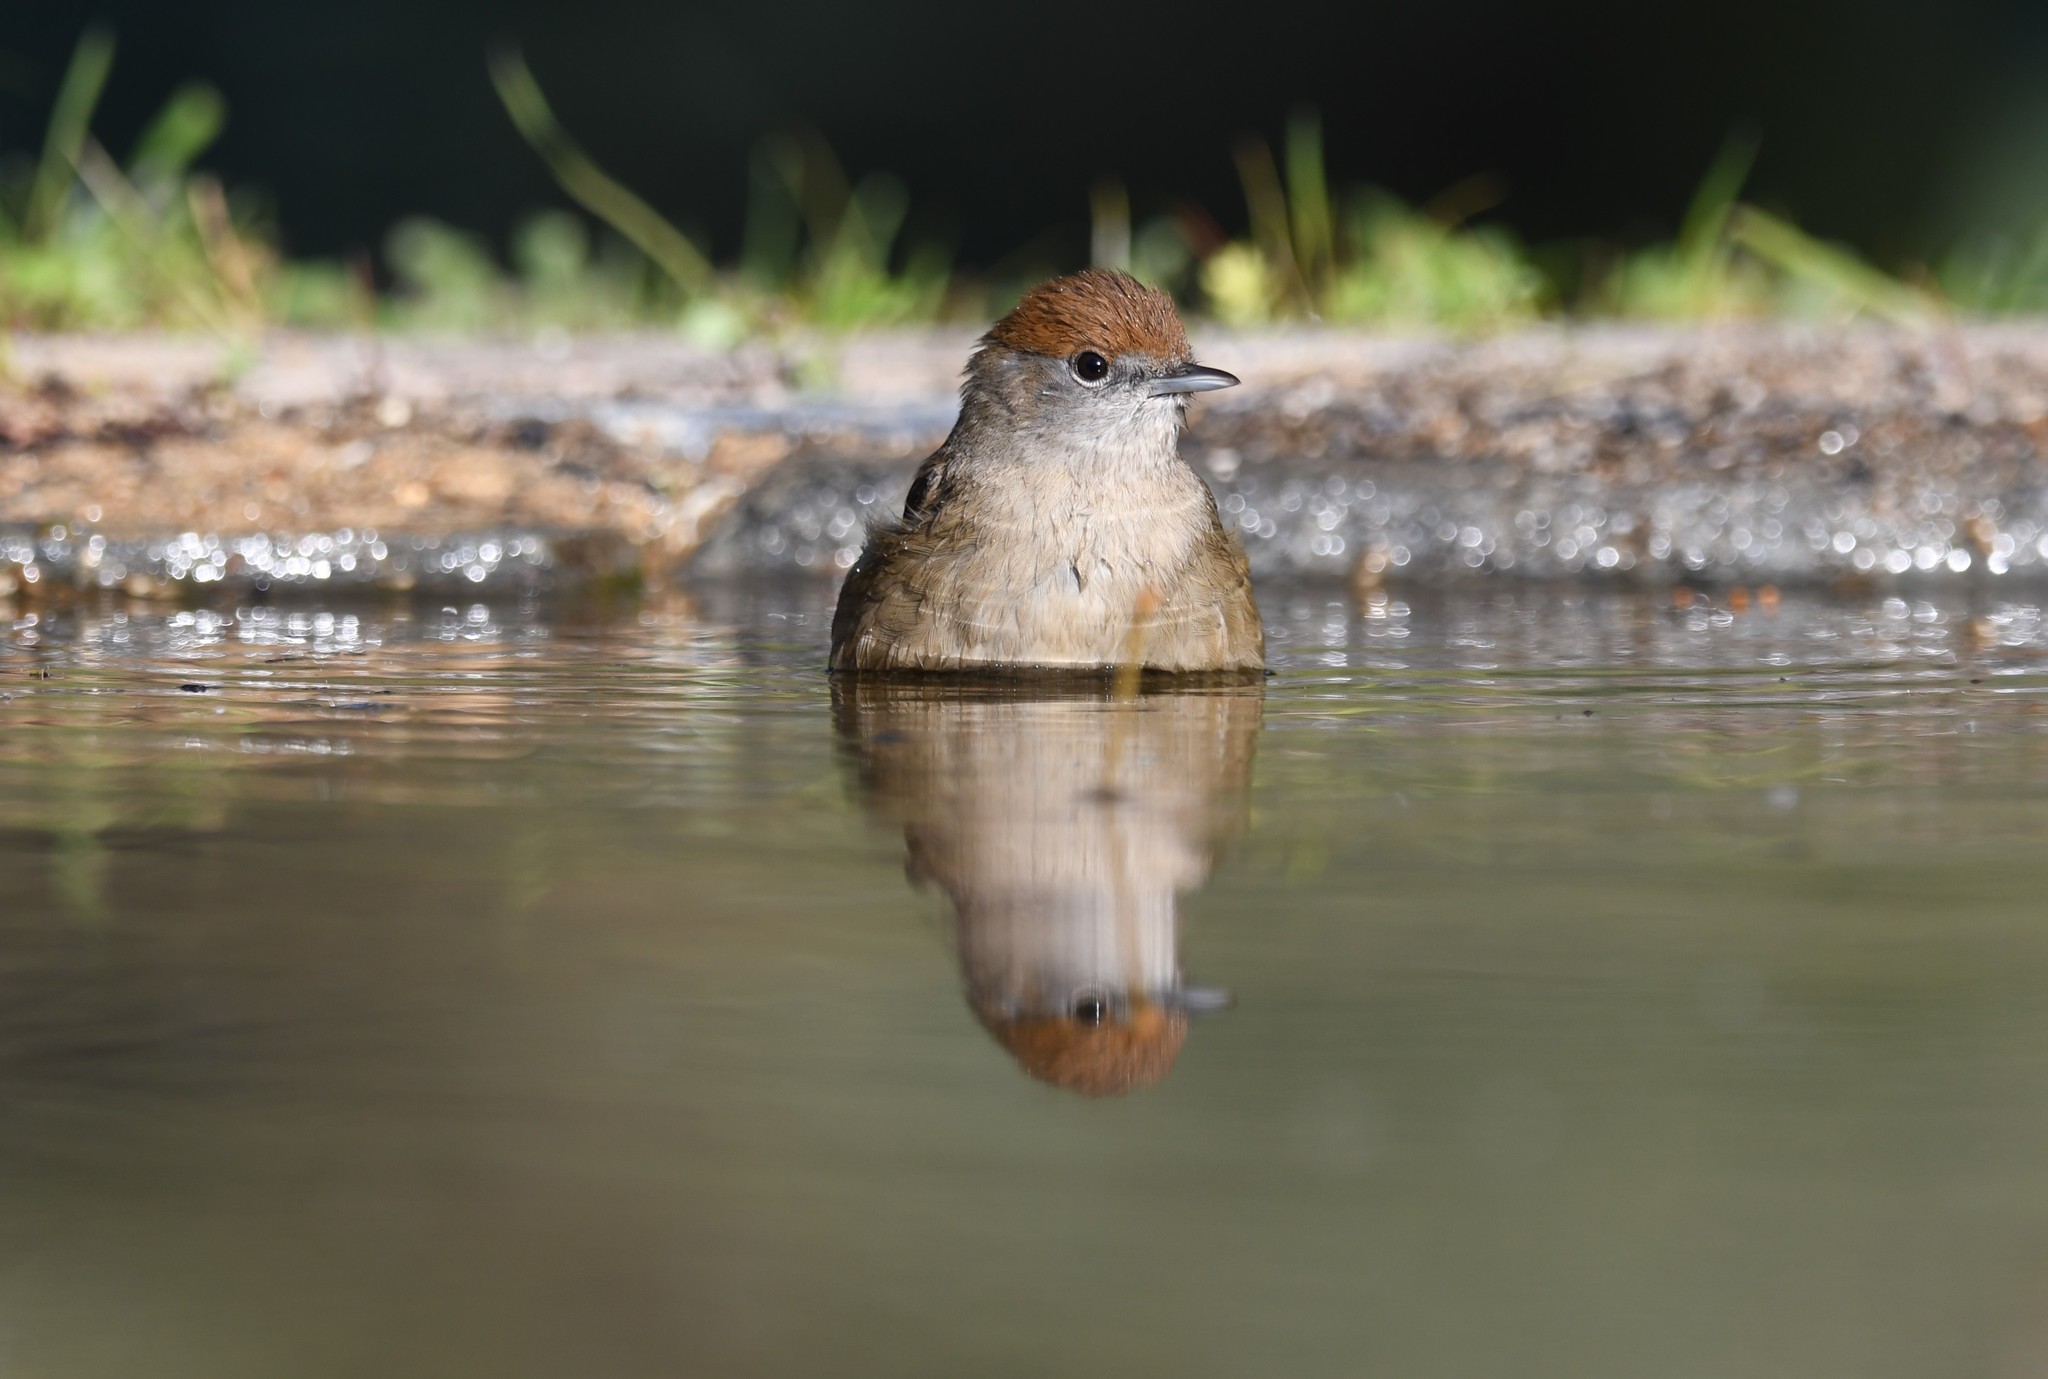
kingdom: Animalia
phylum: Chordata
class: Aves
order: Passeriformes
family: Sylviidae
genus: Sylvia
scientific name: Sylvia atricapilla
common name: Eurasian blackcap
